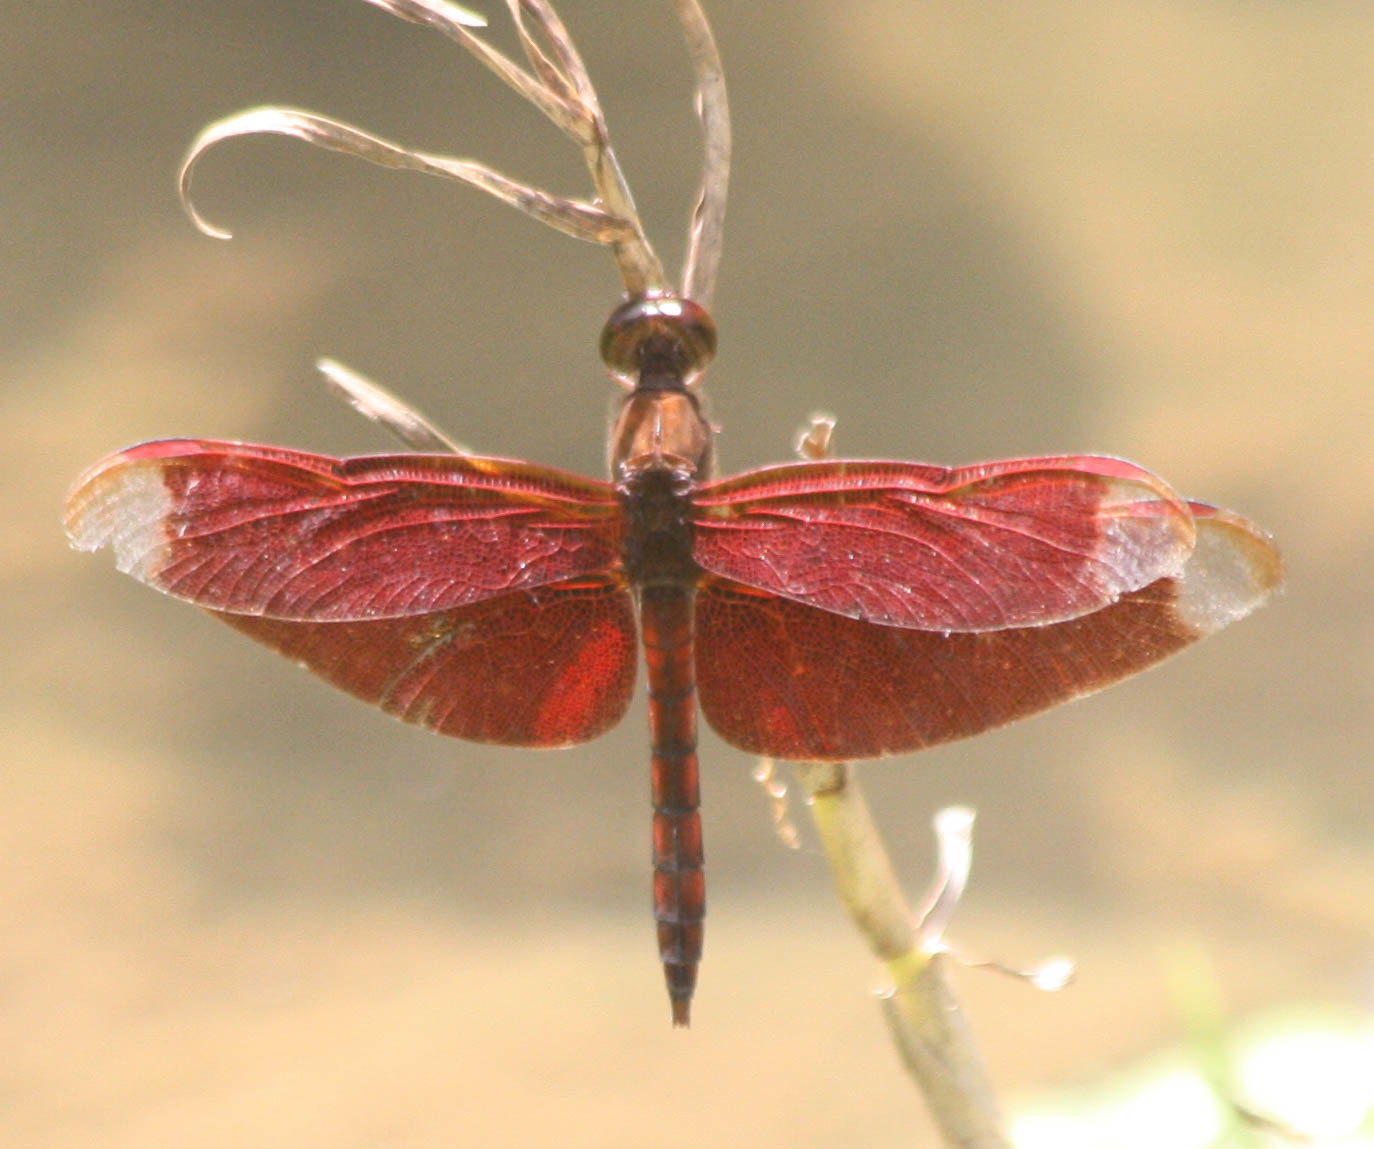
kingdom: Animalia
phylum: Arthropoda
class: Insecta
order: Odonata
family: Libellulidae
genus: Neurothemis
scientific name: Neurothemis fulvia
